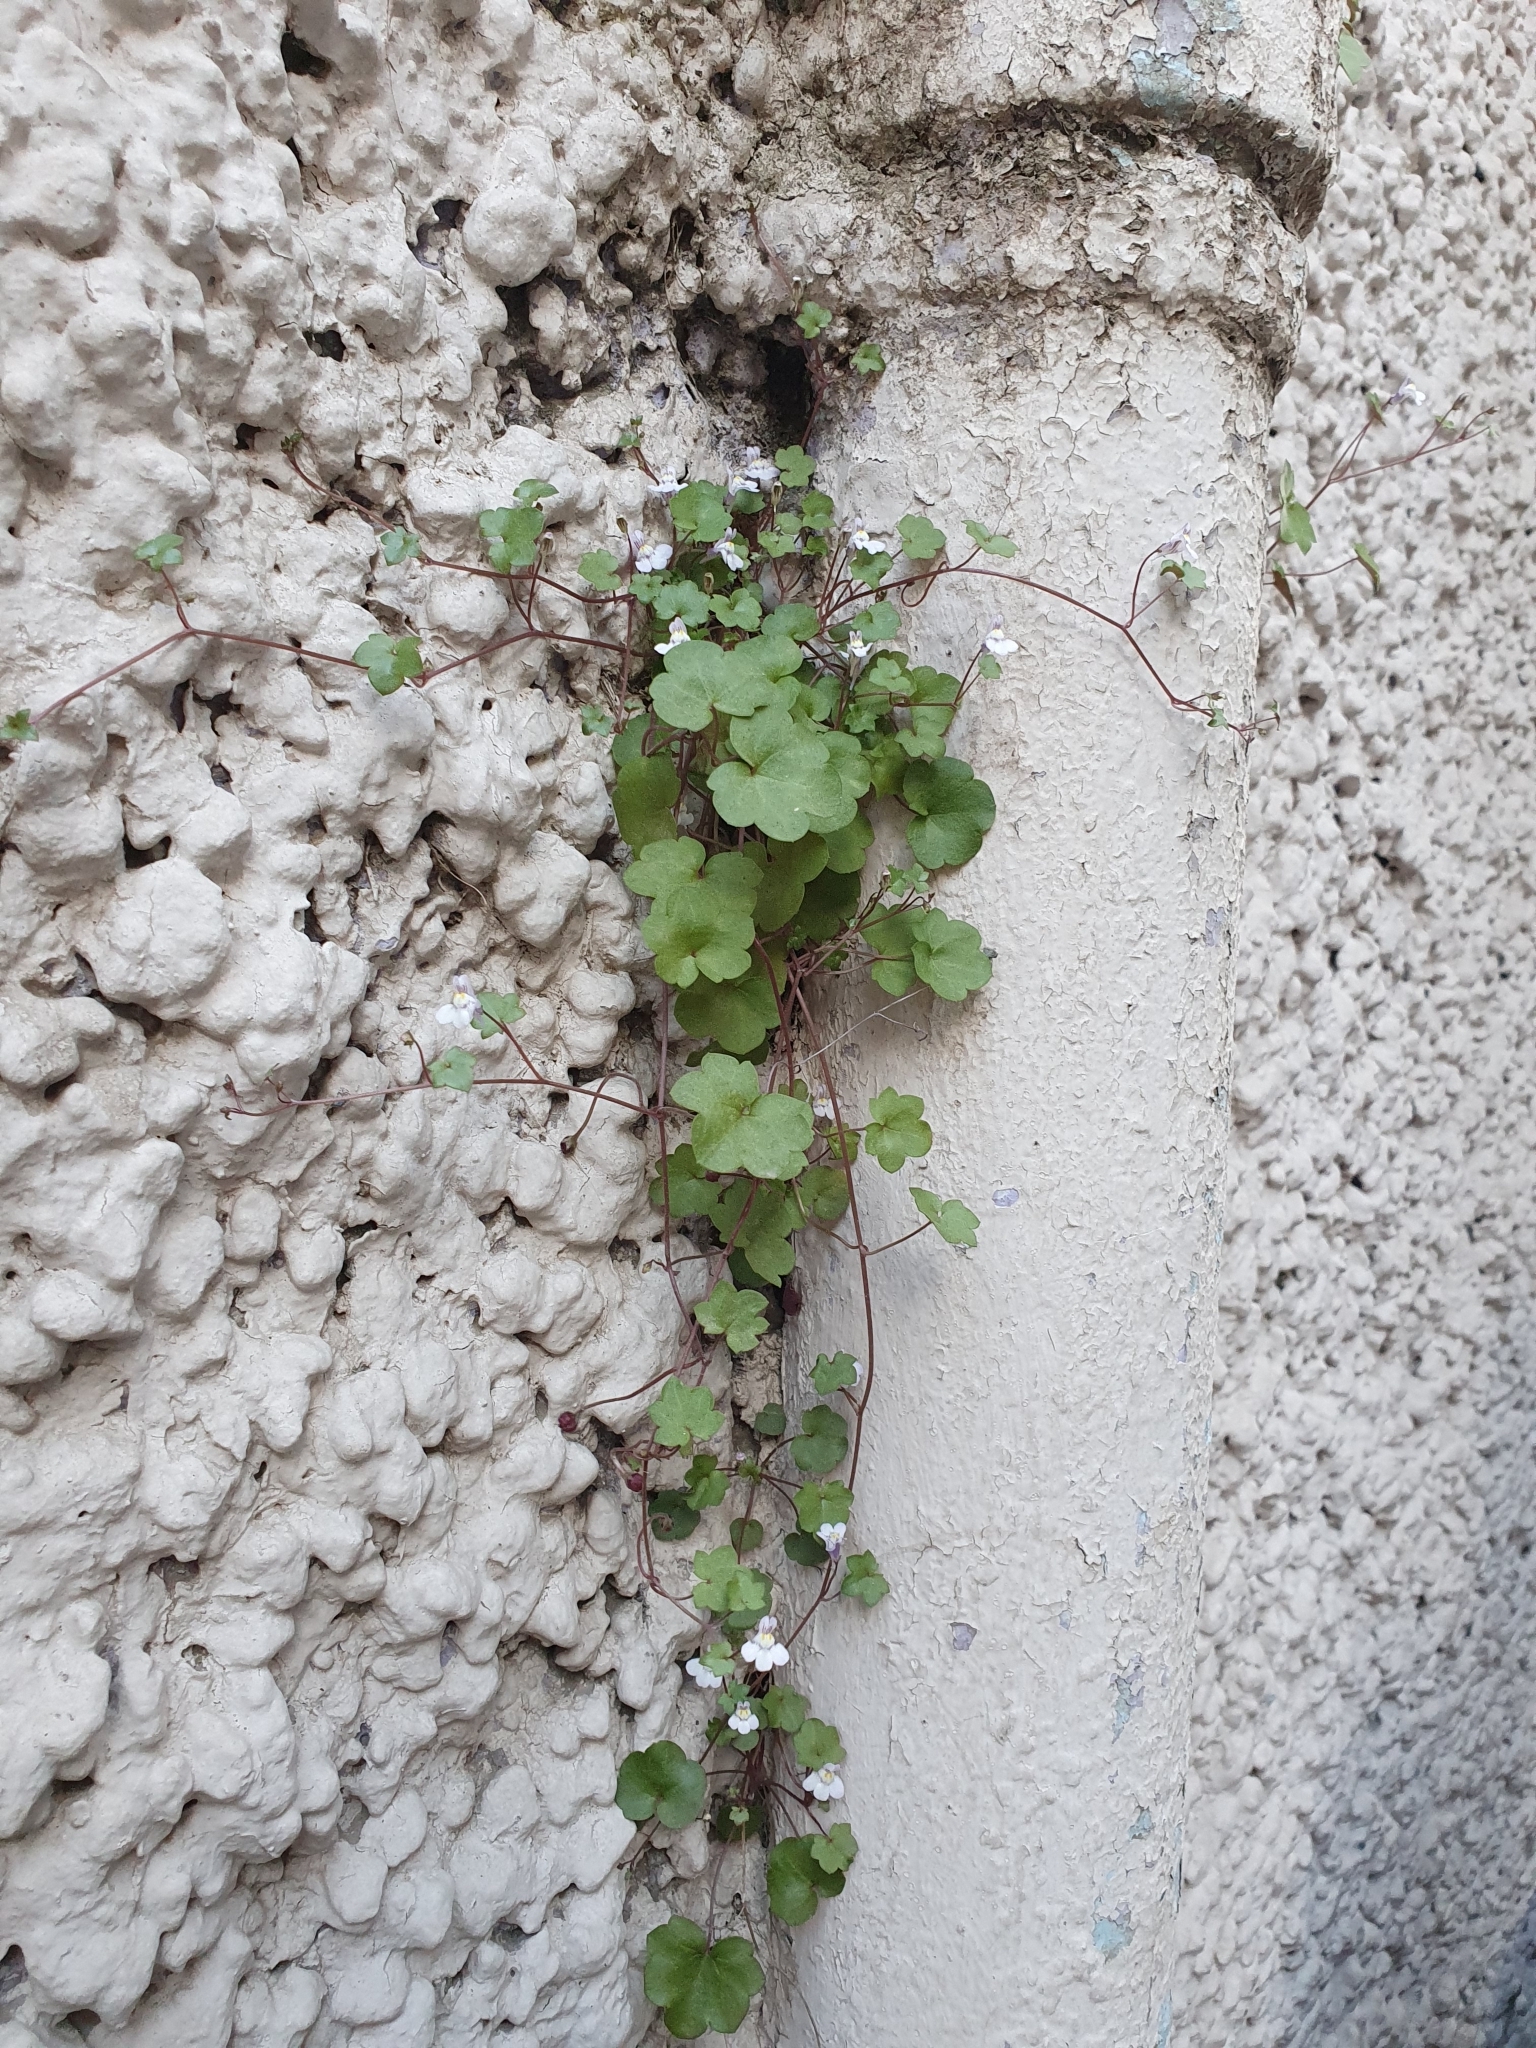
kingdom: Plantae
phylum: Tracheophyta
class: Magnoliopsida
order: Lamiales
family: Plantaginaceae
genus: Cymbalaria
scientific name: Cymbalaria muralis
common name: Ivy-leaved toadflax
